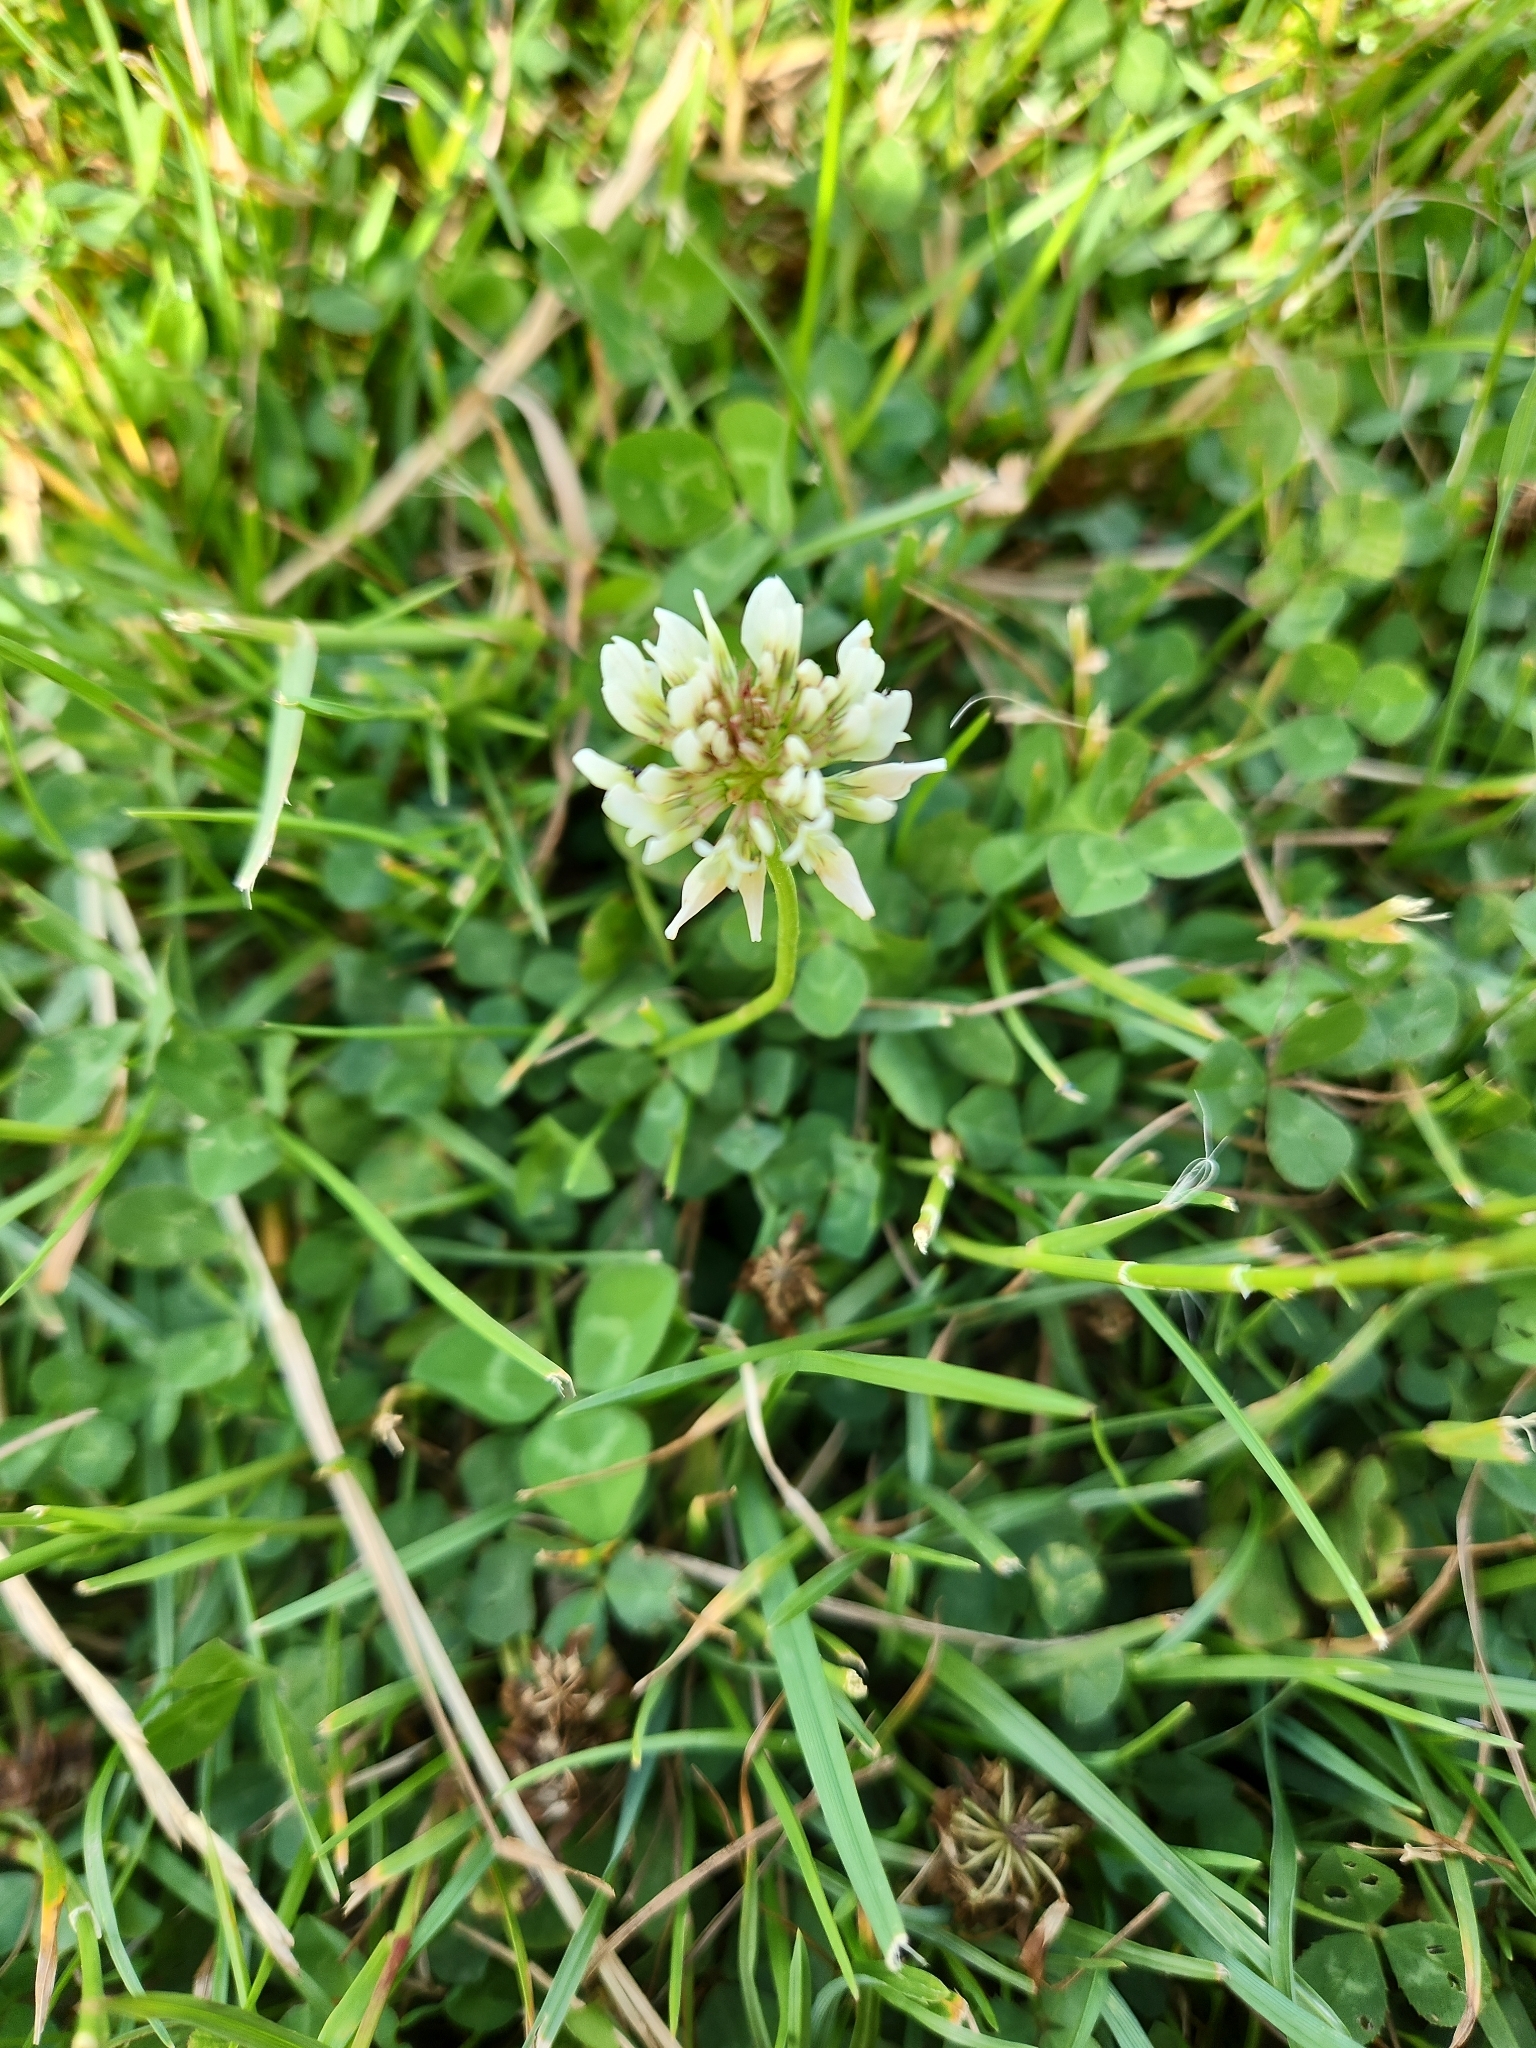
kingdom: Plantae
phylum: Tracheophyta
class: Magnoliopsida
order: Fabales
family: Fabaceae
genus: Trifolium
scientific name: Trifolium repens
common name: White clover
